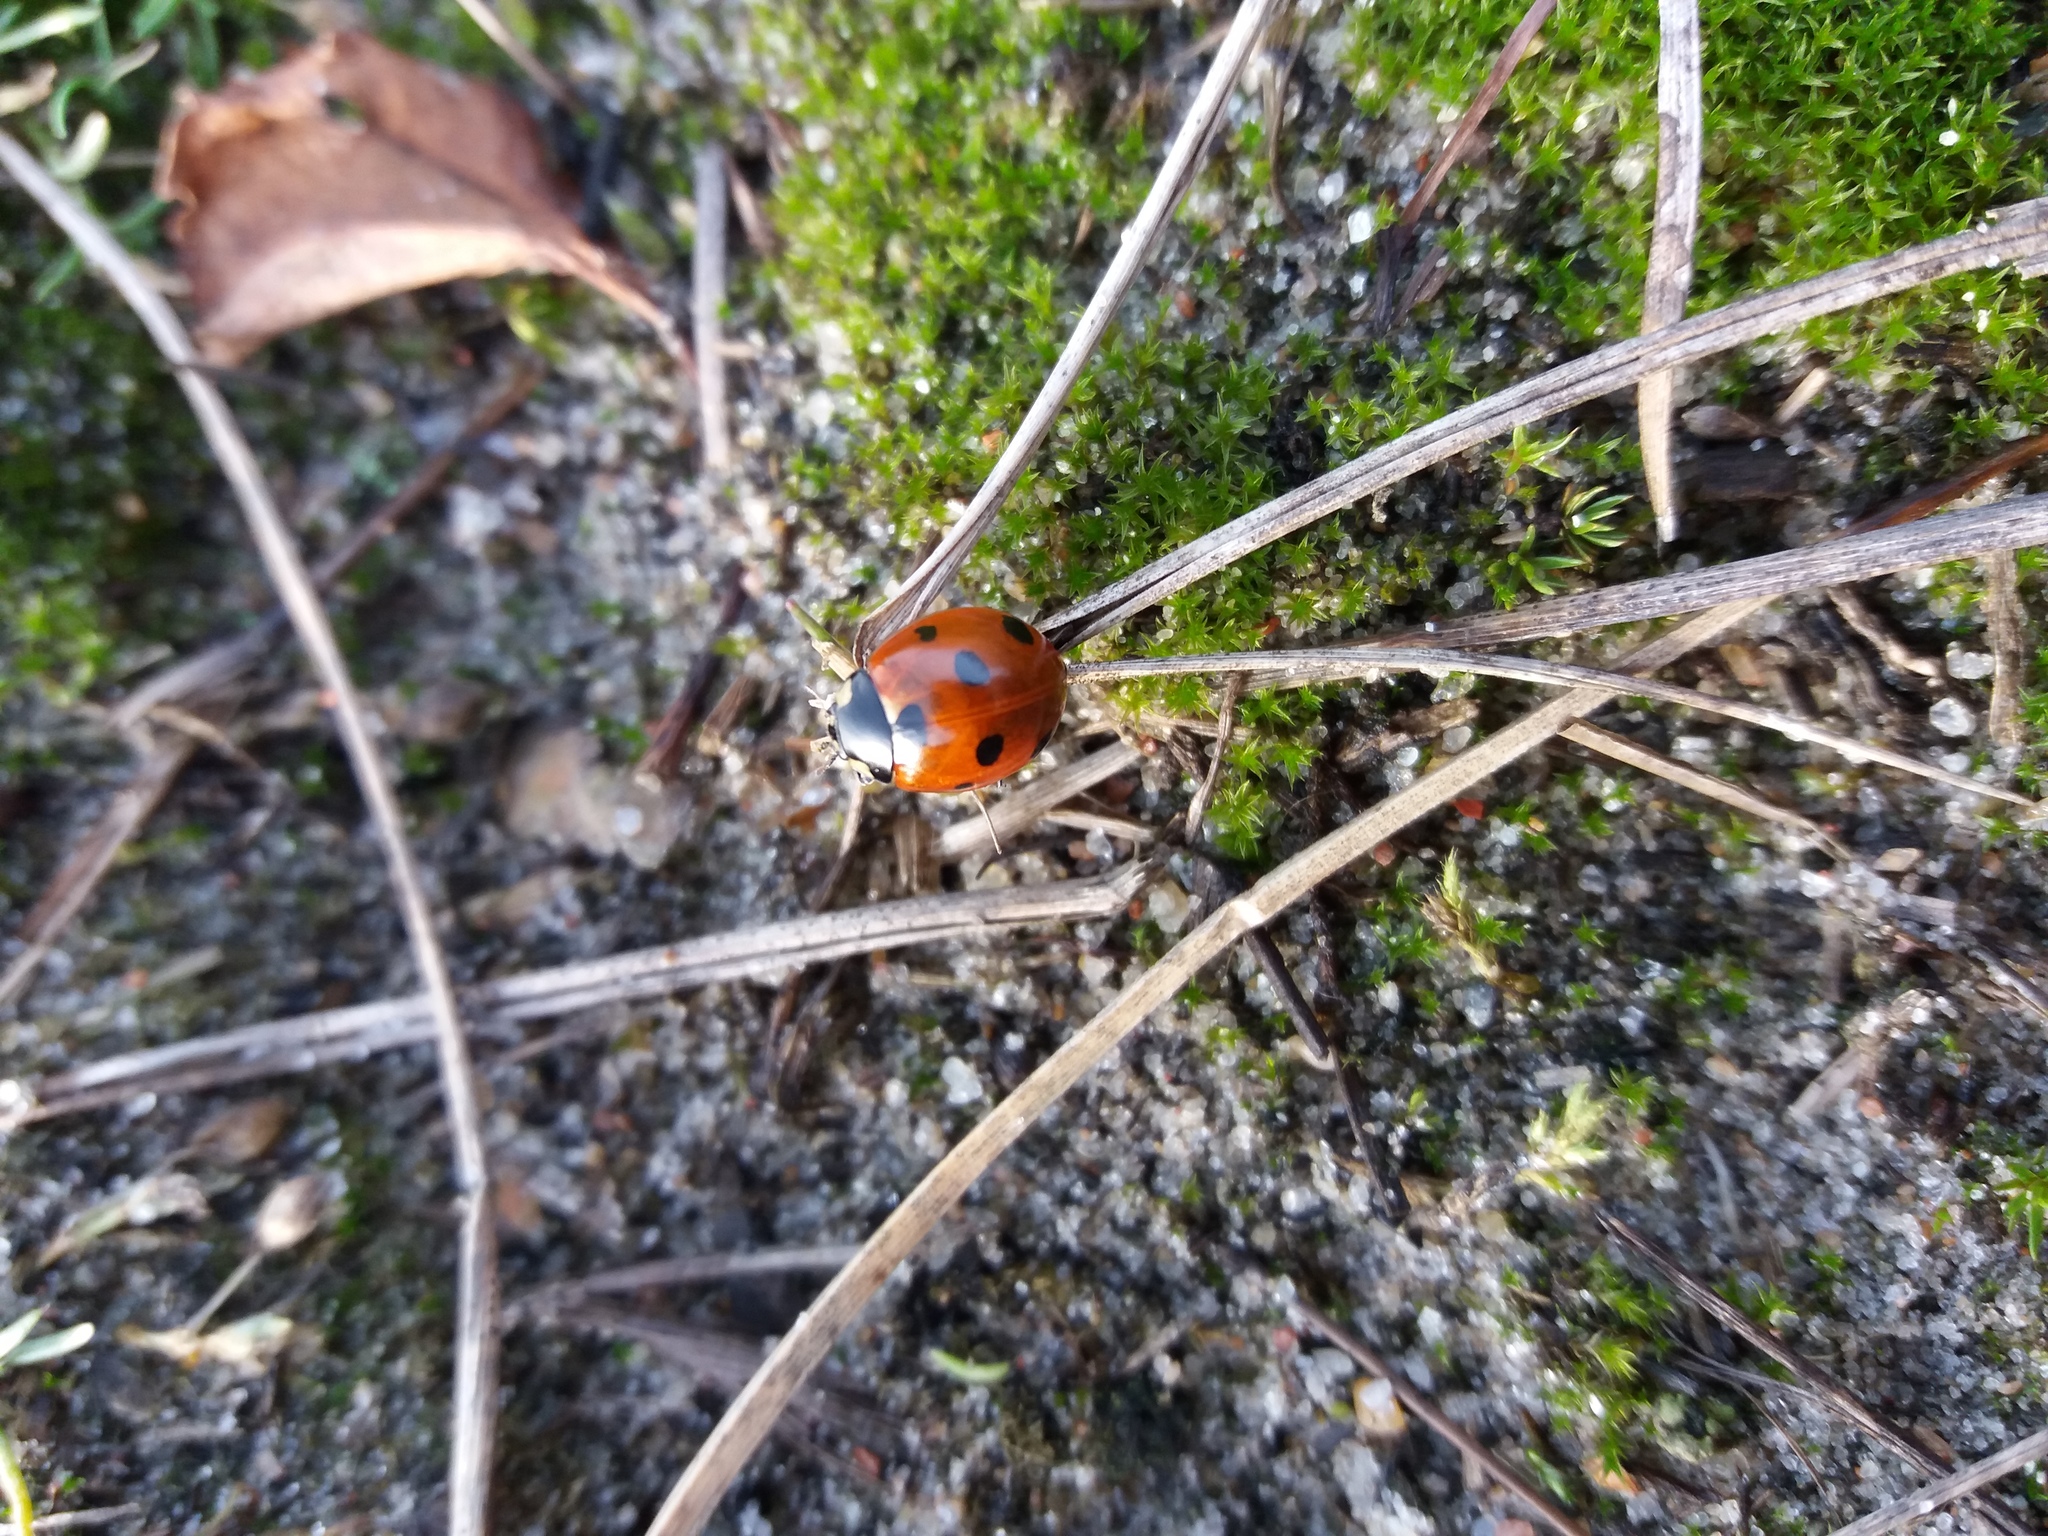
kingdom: Animalia
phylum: Arthropoda
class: Insecta
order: Coleoptera
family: Coccinellidae
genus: Coccinella
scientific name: Coccinella septempunctata
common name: Sevenspotted lady beetle
